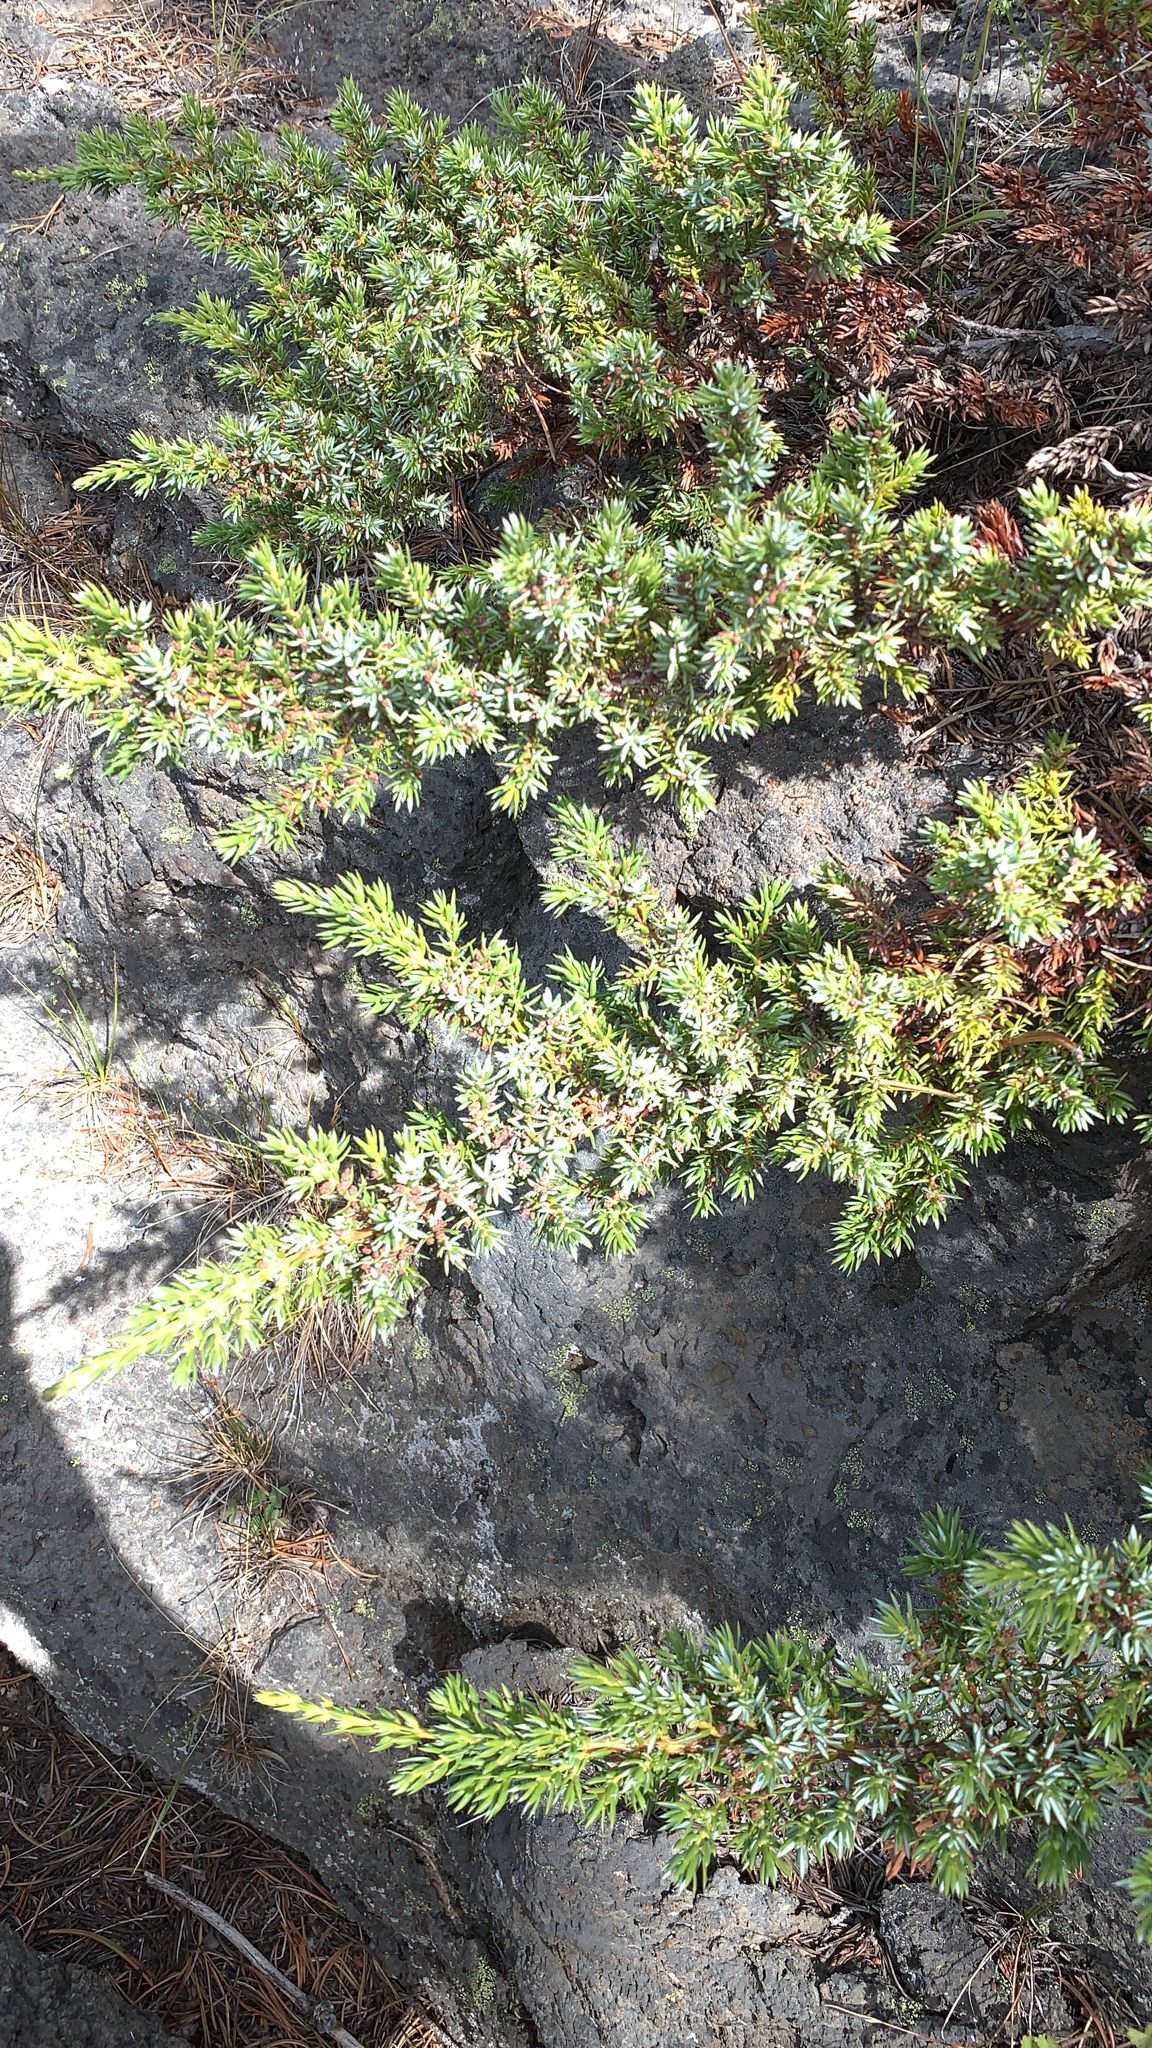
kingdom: Plantae
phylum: Tracheophyta
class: Pinopsida
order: Pinales
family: Cupressaceae
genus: Juniperus
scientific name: Juniperus communis
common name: Common juniper
